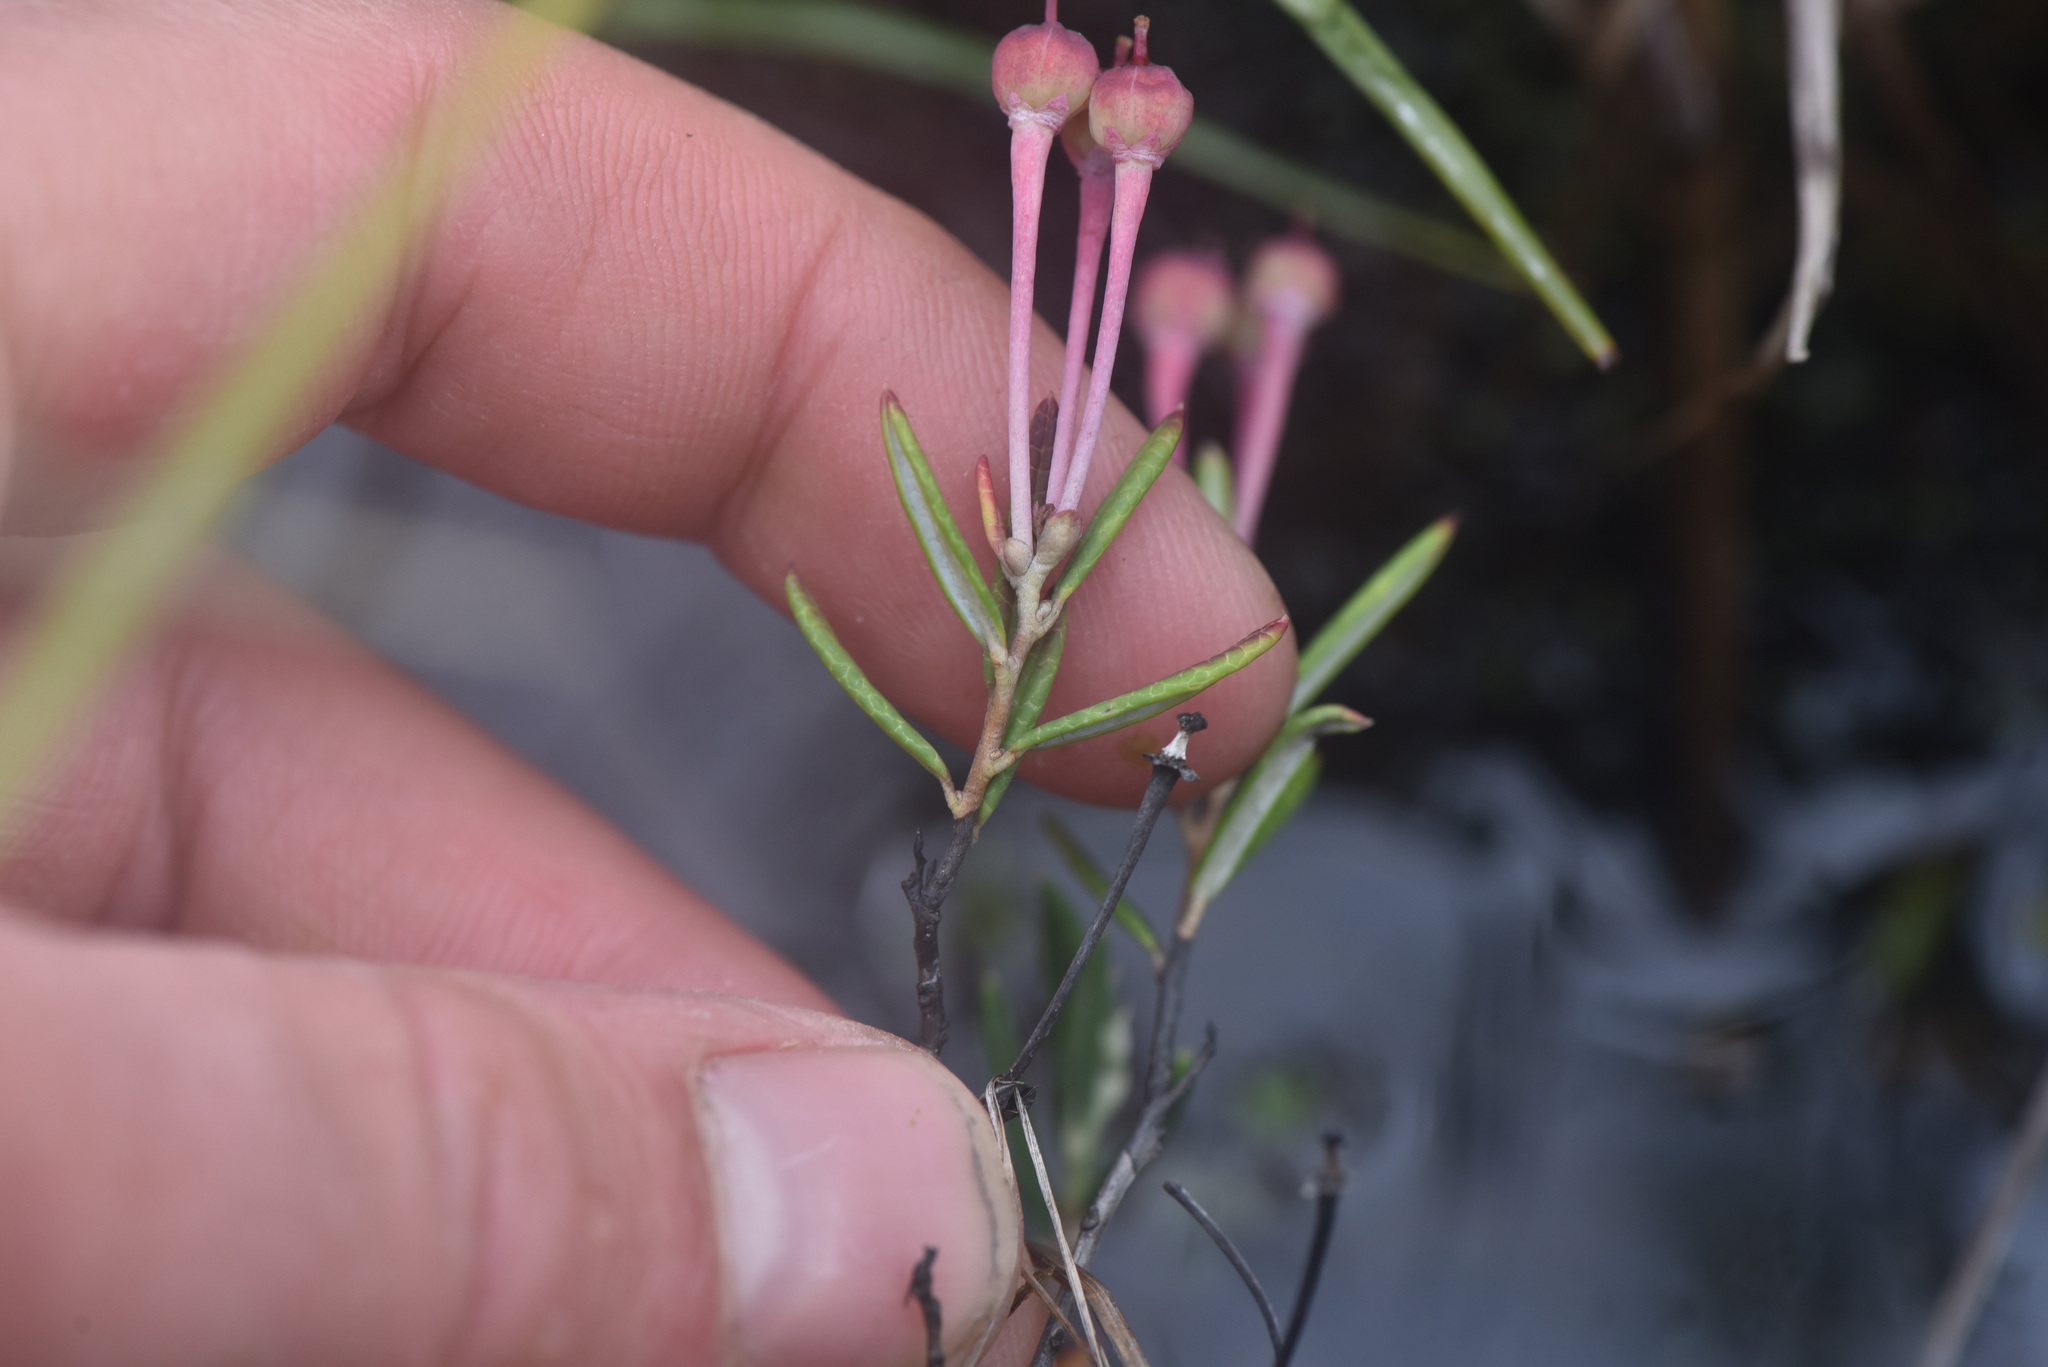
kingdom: Plantae
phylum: Tracheophyta
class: Magnoliopsida
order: Ericales
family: Ericaceae
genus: Andromeda
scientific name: Andromeda polifolia
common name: Bog-rosemary
